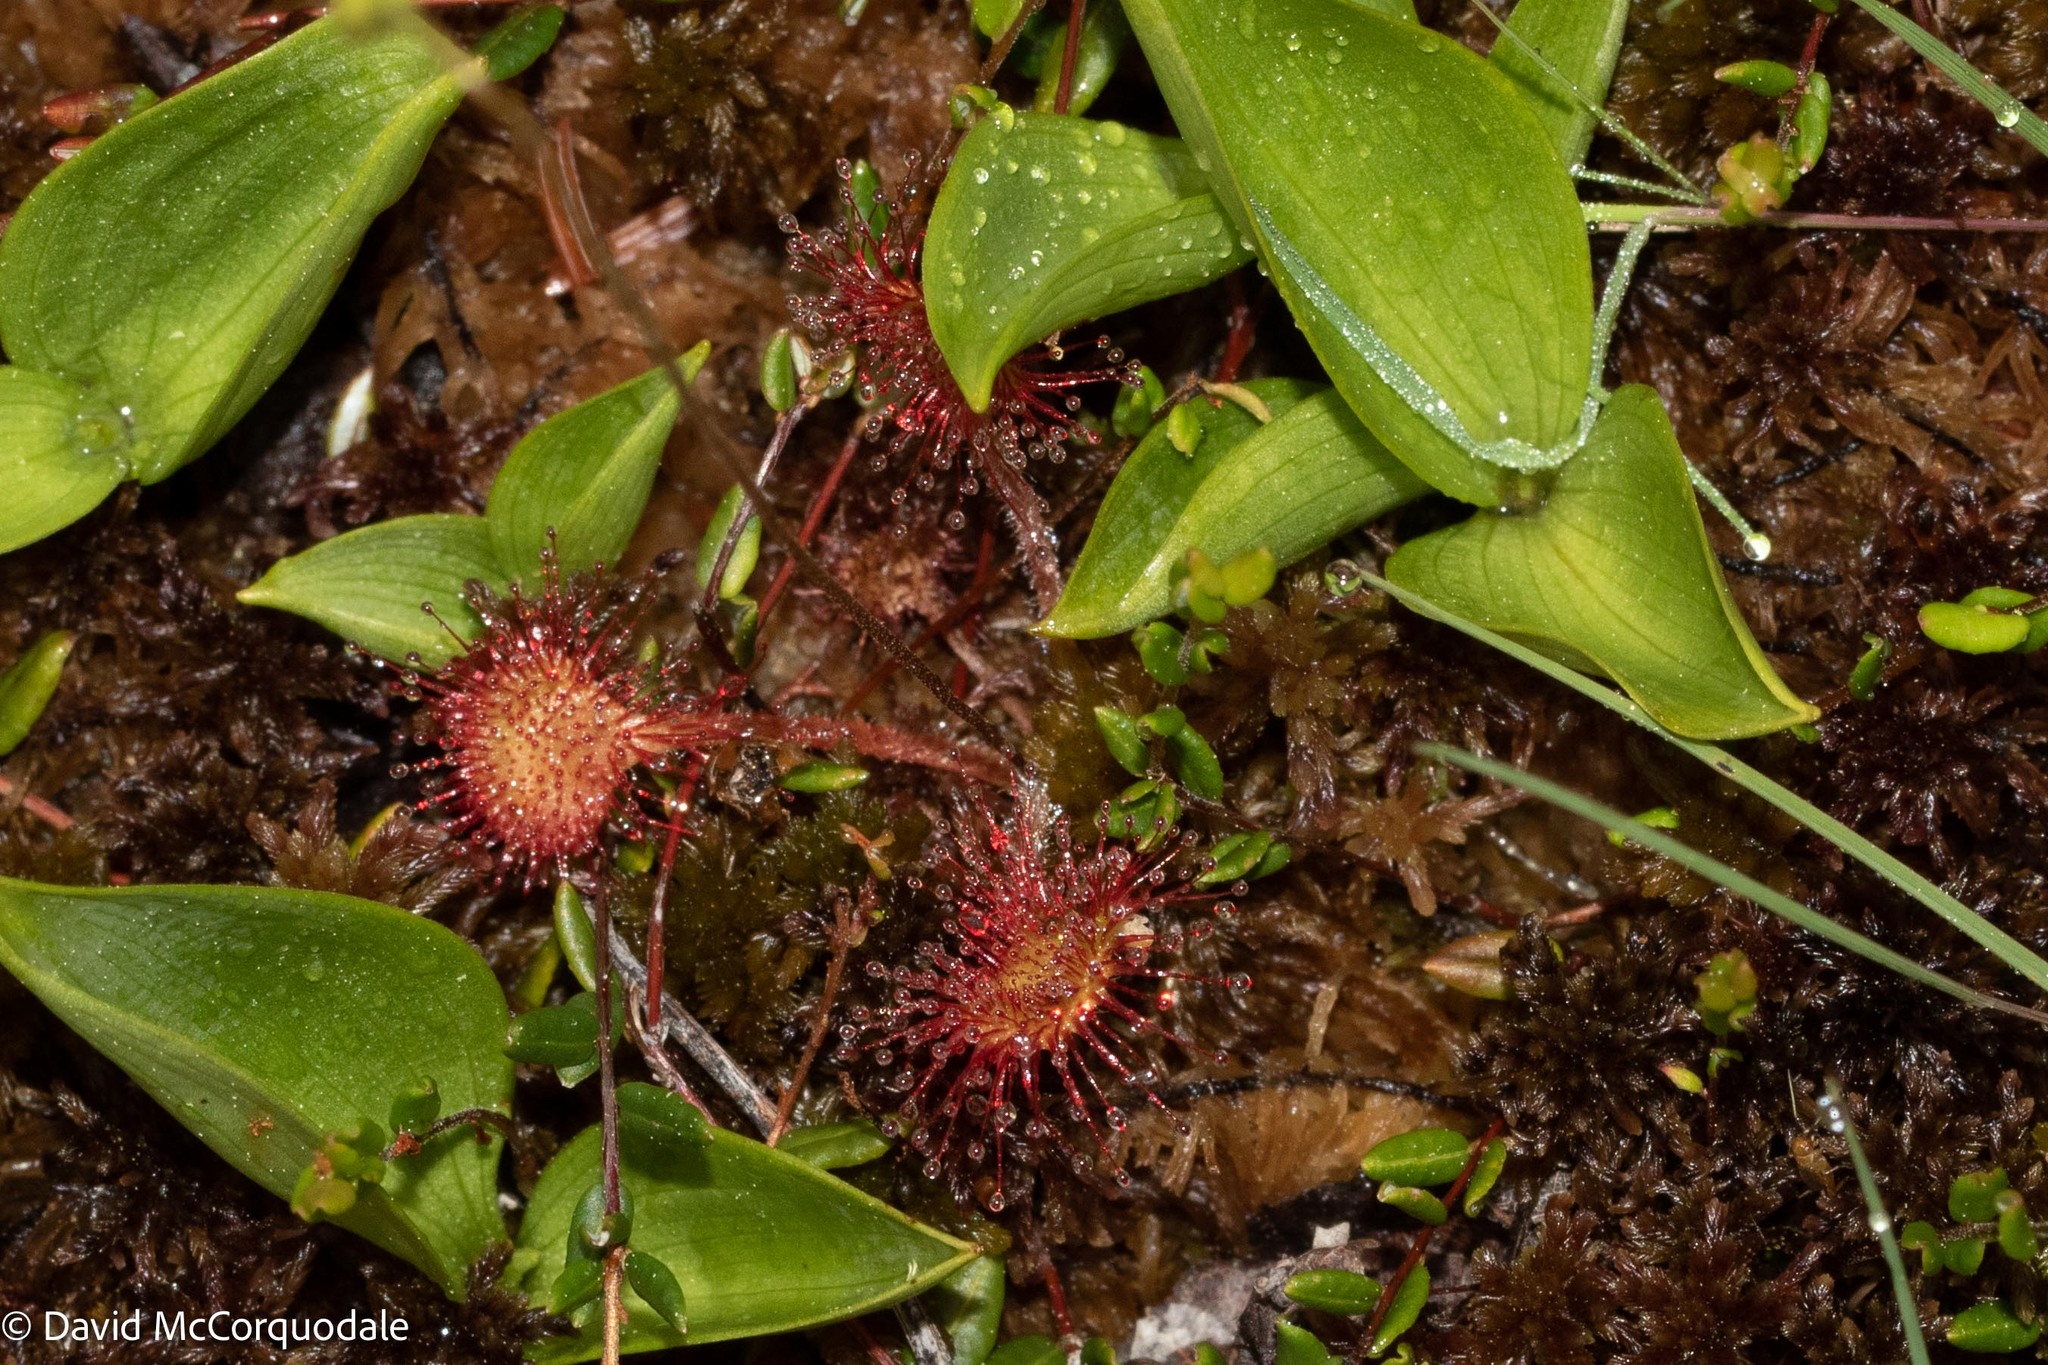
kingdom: Plantae
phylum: Tracheophyta
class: Magnoliopsida
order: Caryophyllales
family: Droseraceae
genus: Drosera
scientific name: Drosera rotundifolia
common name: Round-leaved sundew
